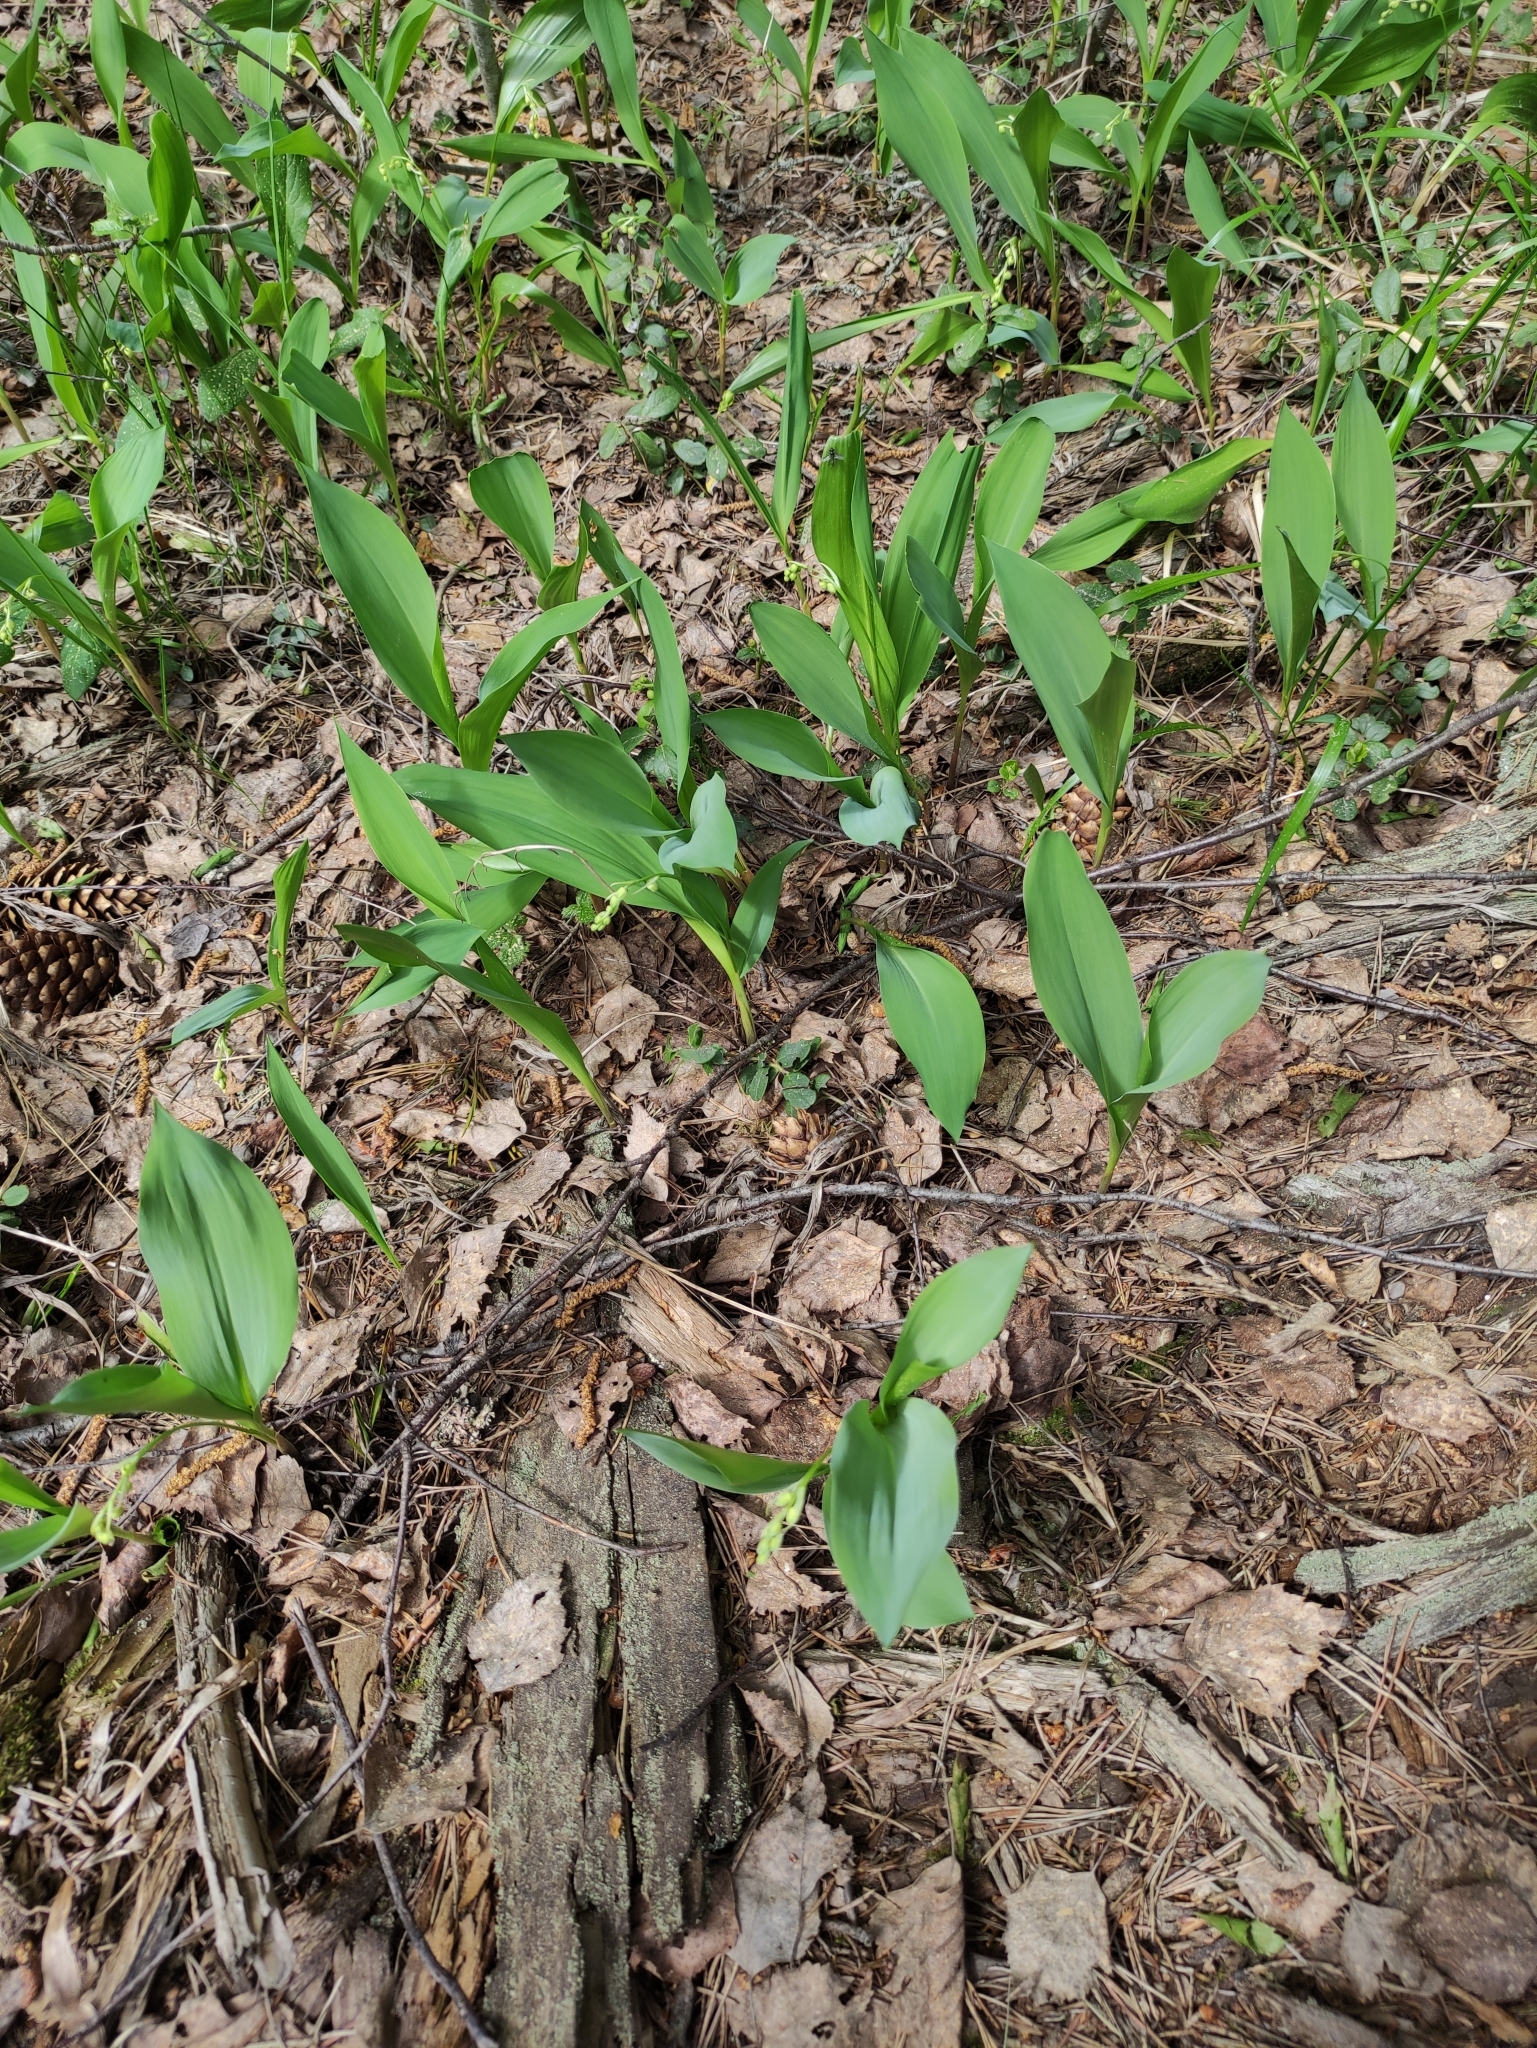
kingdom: Plantae
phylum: Tracheophyta
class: Liliopsida
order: Asparagales
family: Asparagaceae
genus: Convallaria
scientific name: Convallaria majalis
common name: Lily-of-the-valley
